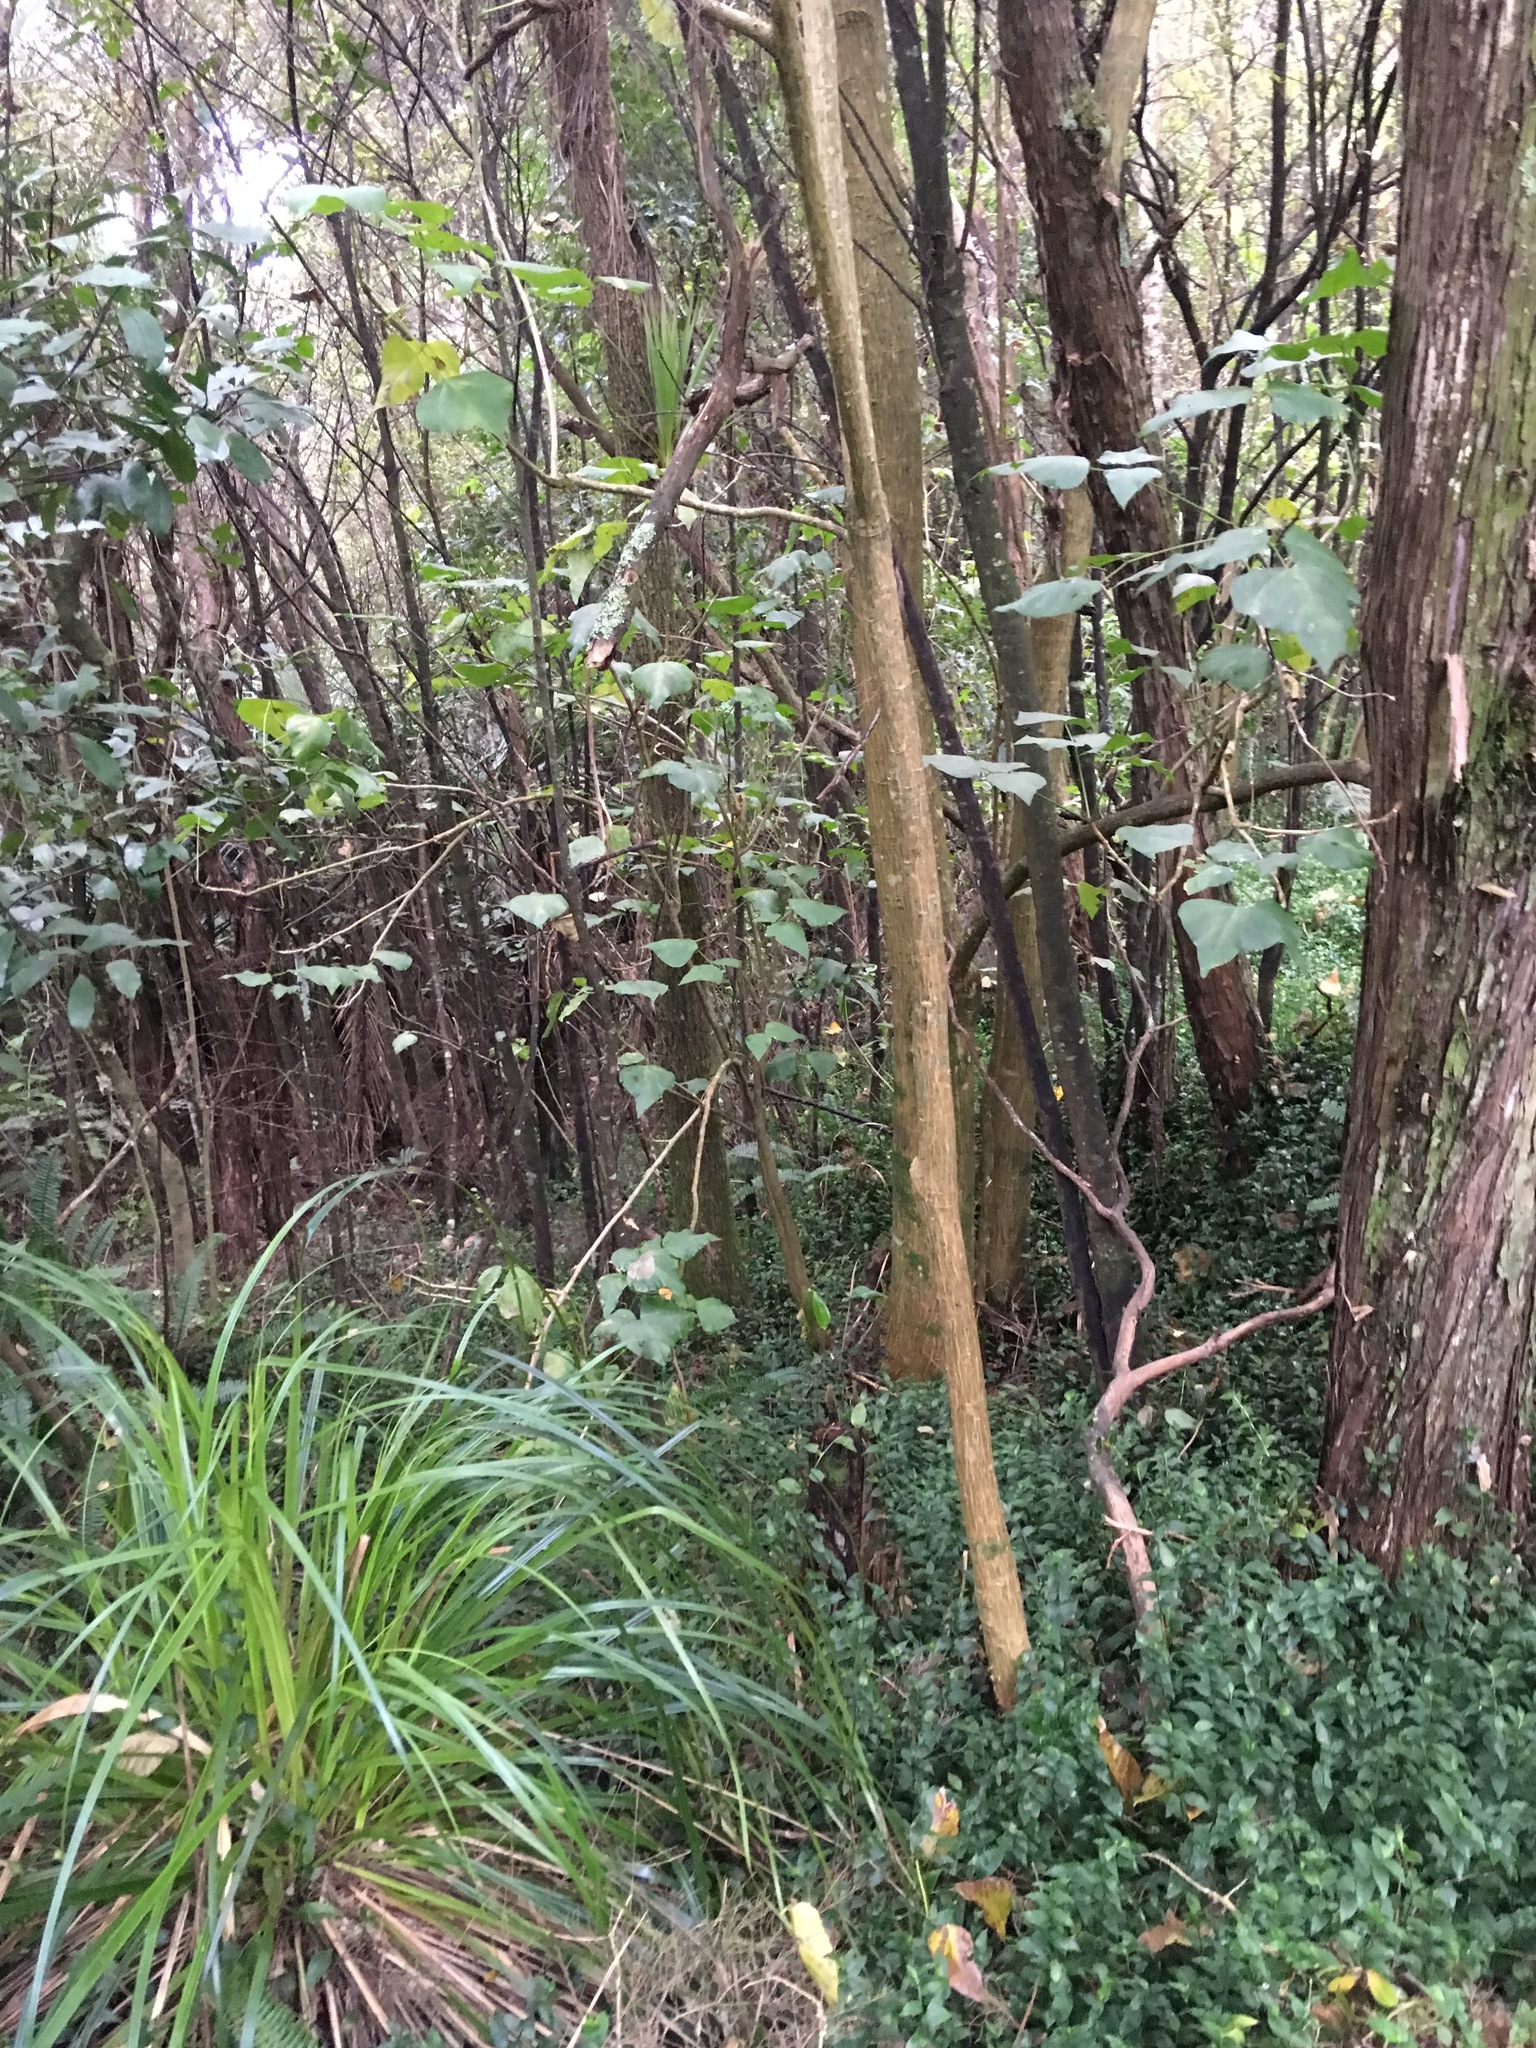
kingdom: Plantae
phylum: Tracheophyta
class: Magnoliopsida
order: Fabales
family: Fabaceae
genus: Erythrina
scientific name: Erythrina sykesii
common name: Coraltree
